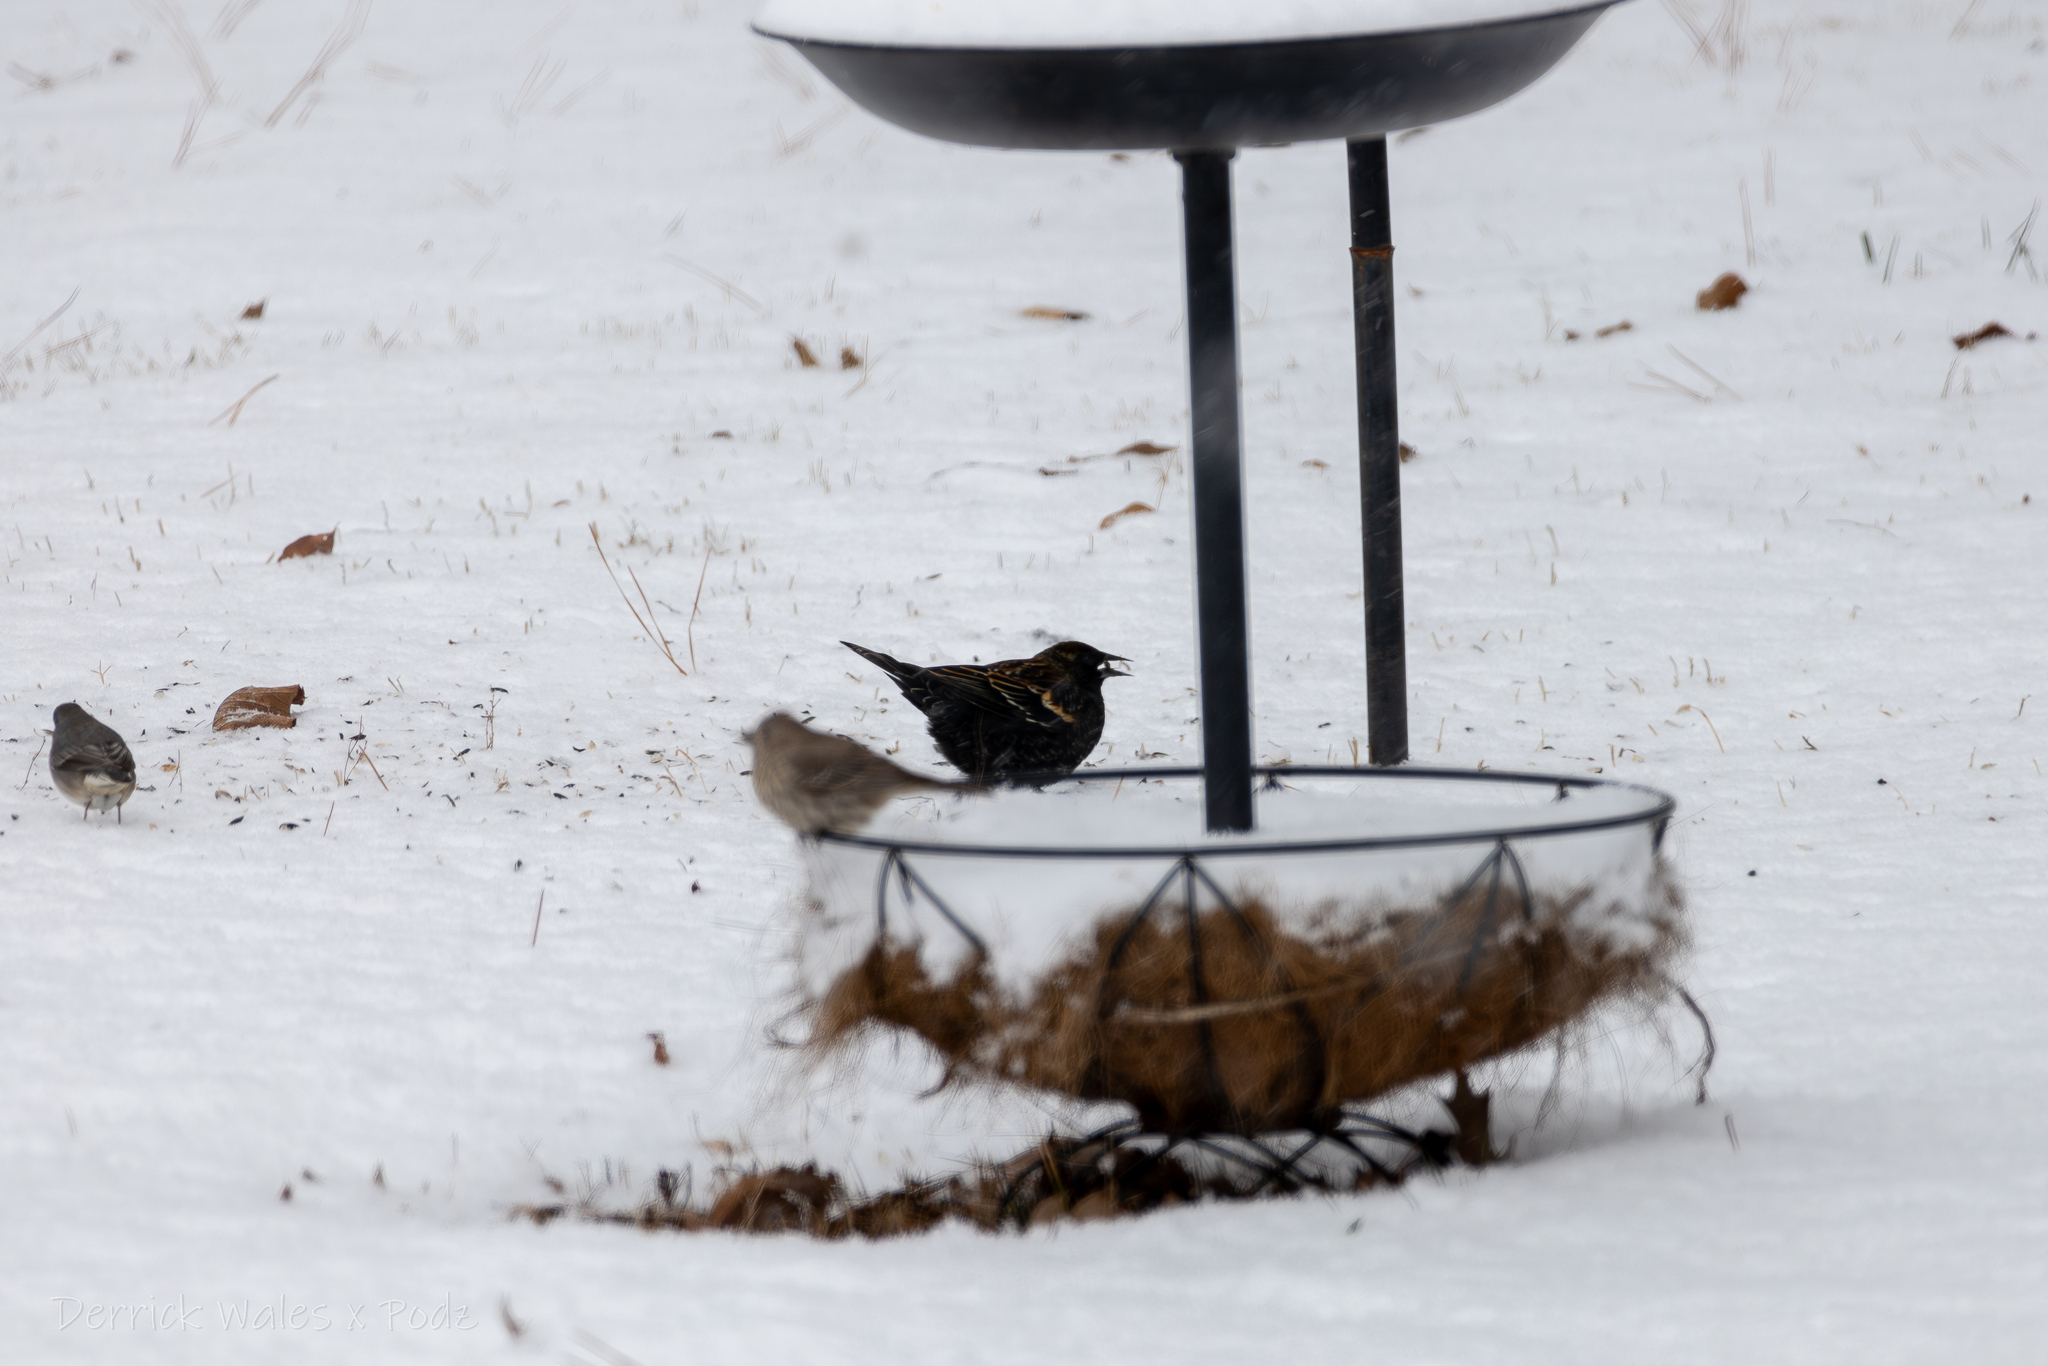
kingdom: Animalia
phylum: Chordata
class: Aves
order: Passeriformes
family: Icteridae
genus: Agelaius
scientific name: Agelaius phoeniceus
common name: Red-winged blackbird
